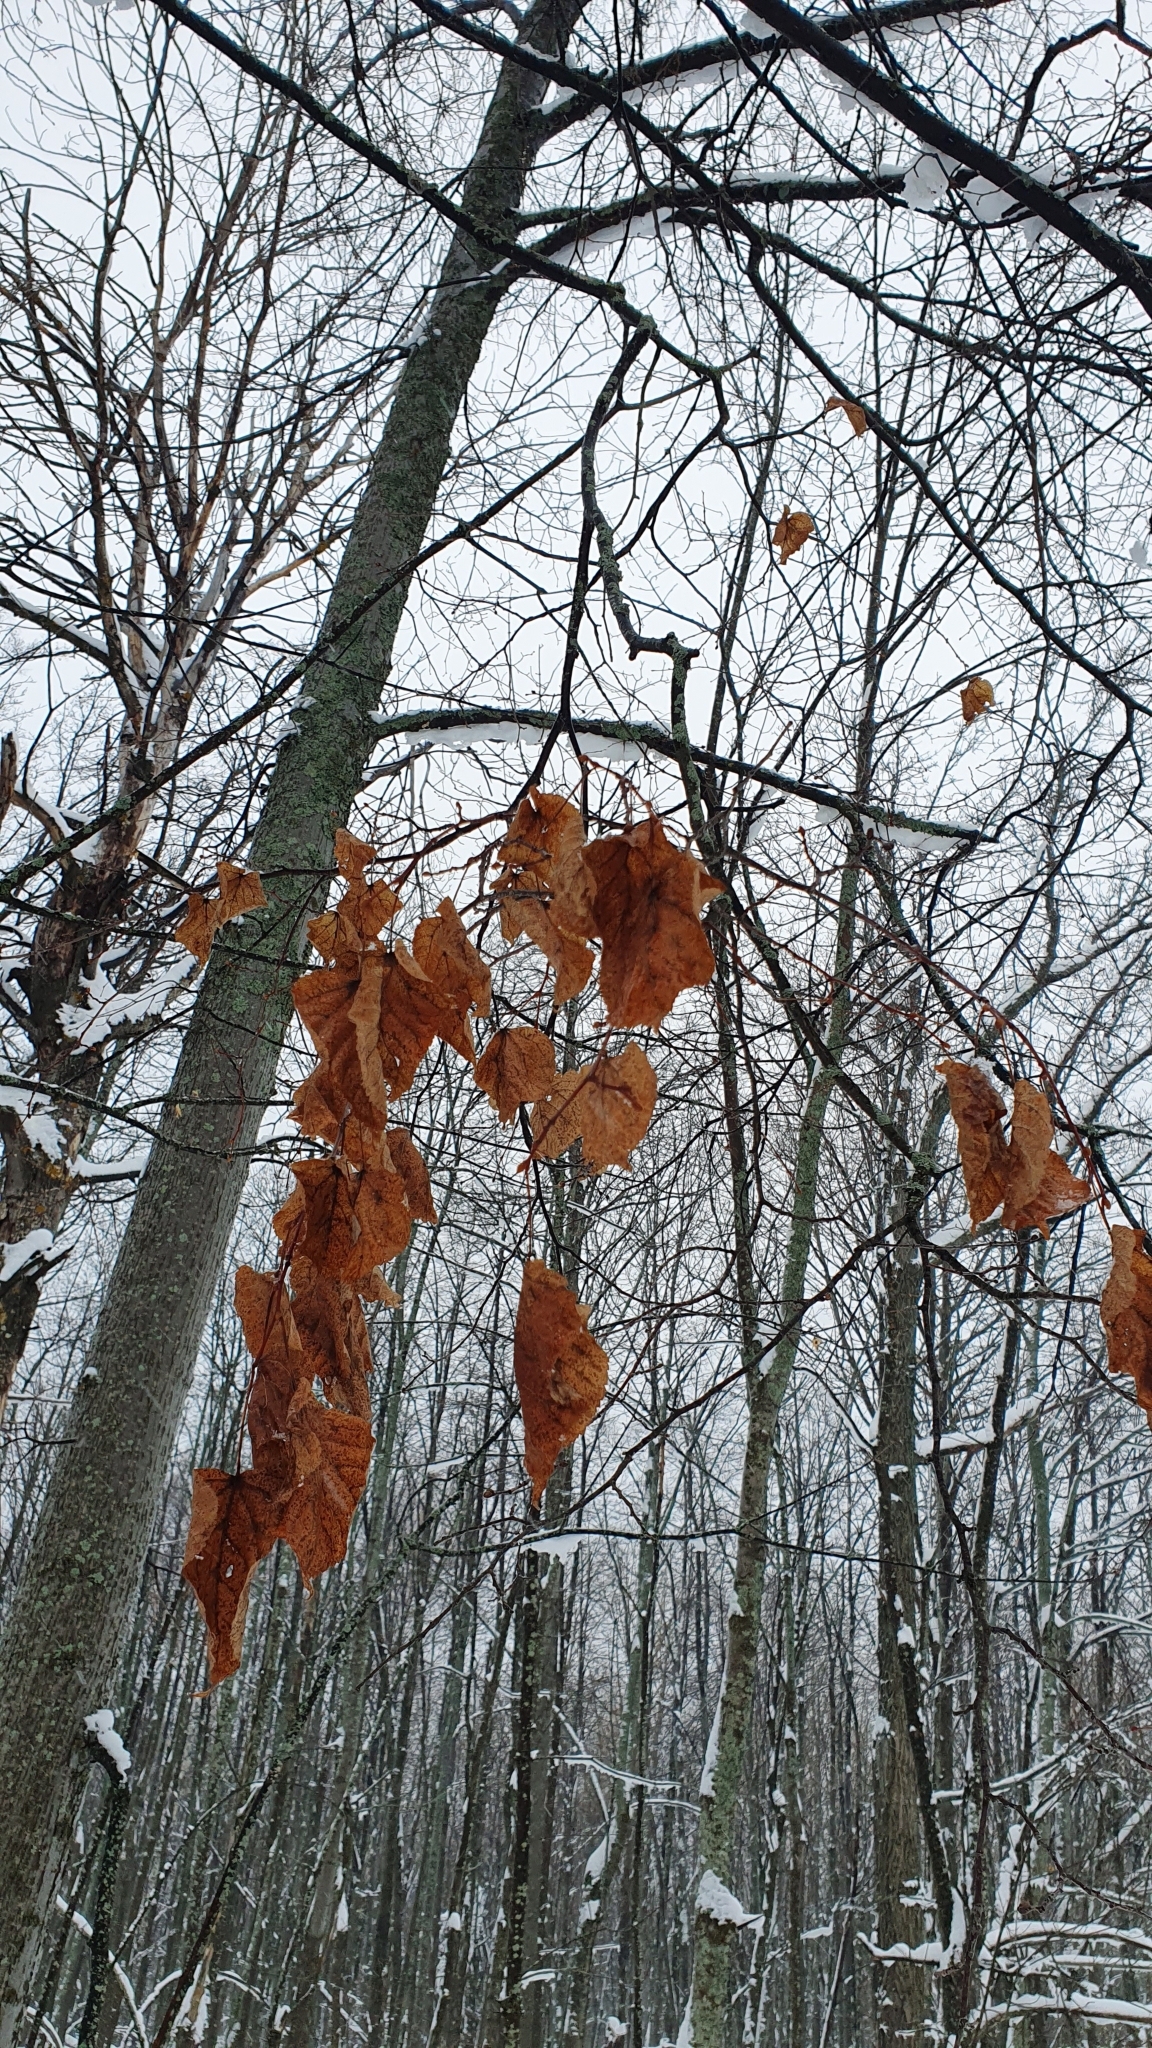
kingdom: Plantae
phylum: Tracheophyta
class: Magnoliopsida
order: Malvales
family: Malvaceae
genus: Tilia
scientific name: Tilia cordata
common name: Small-leaved lime
